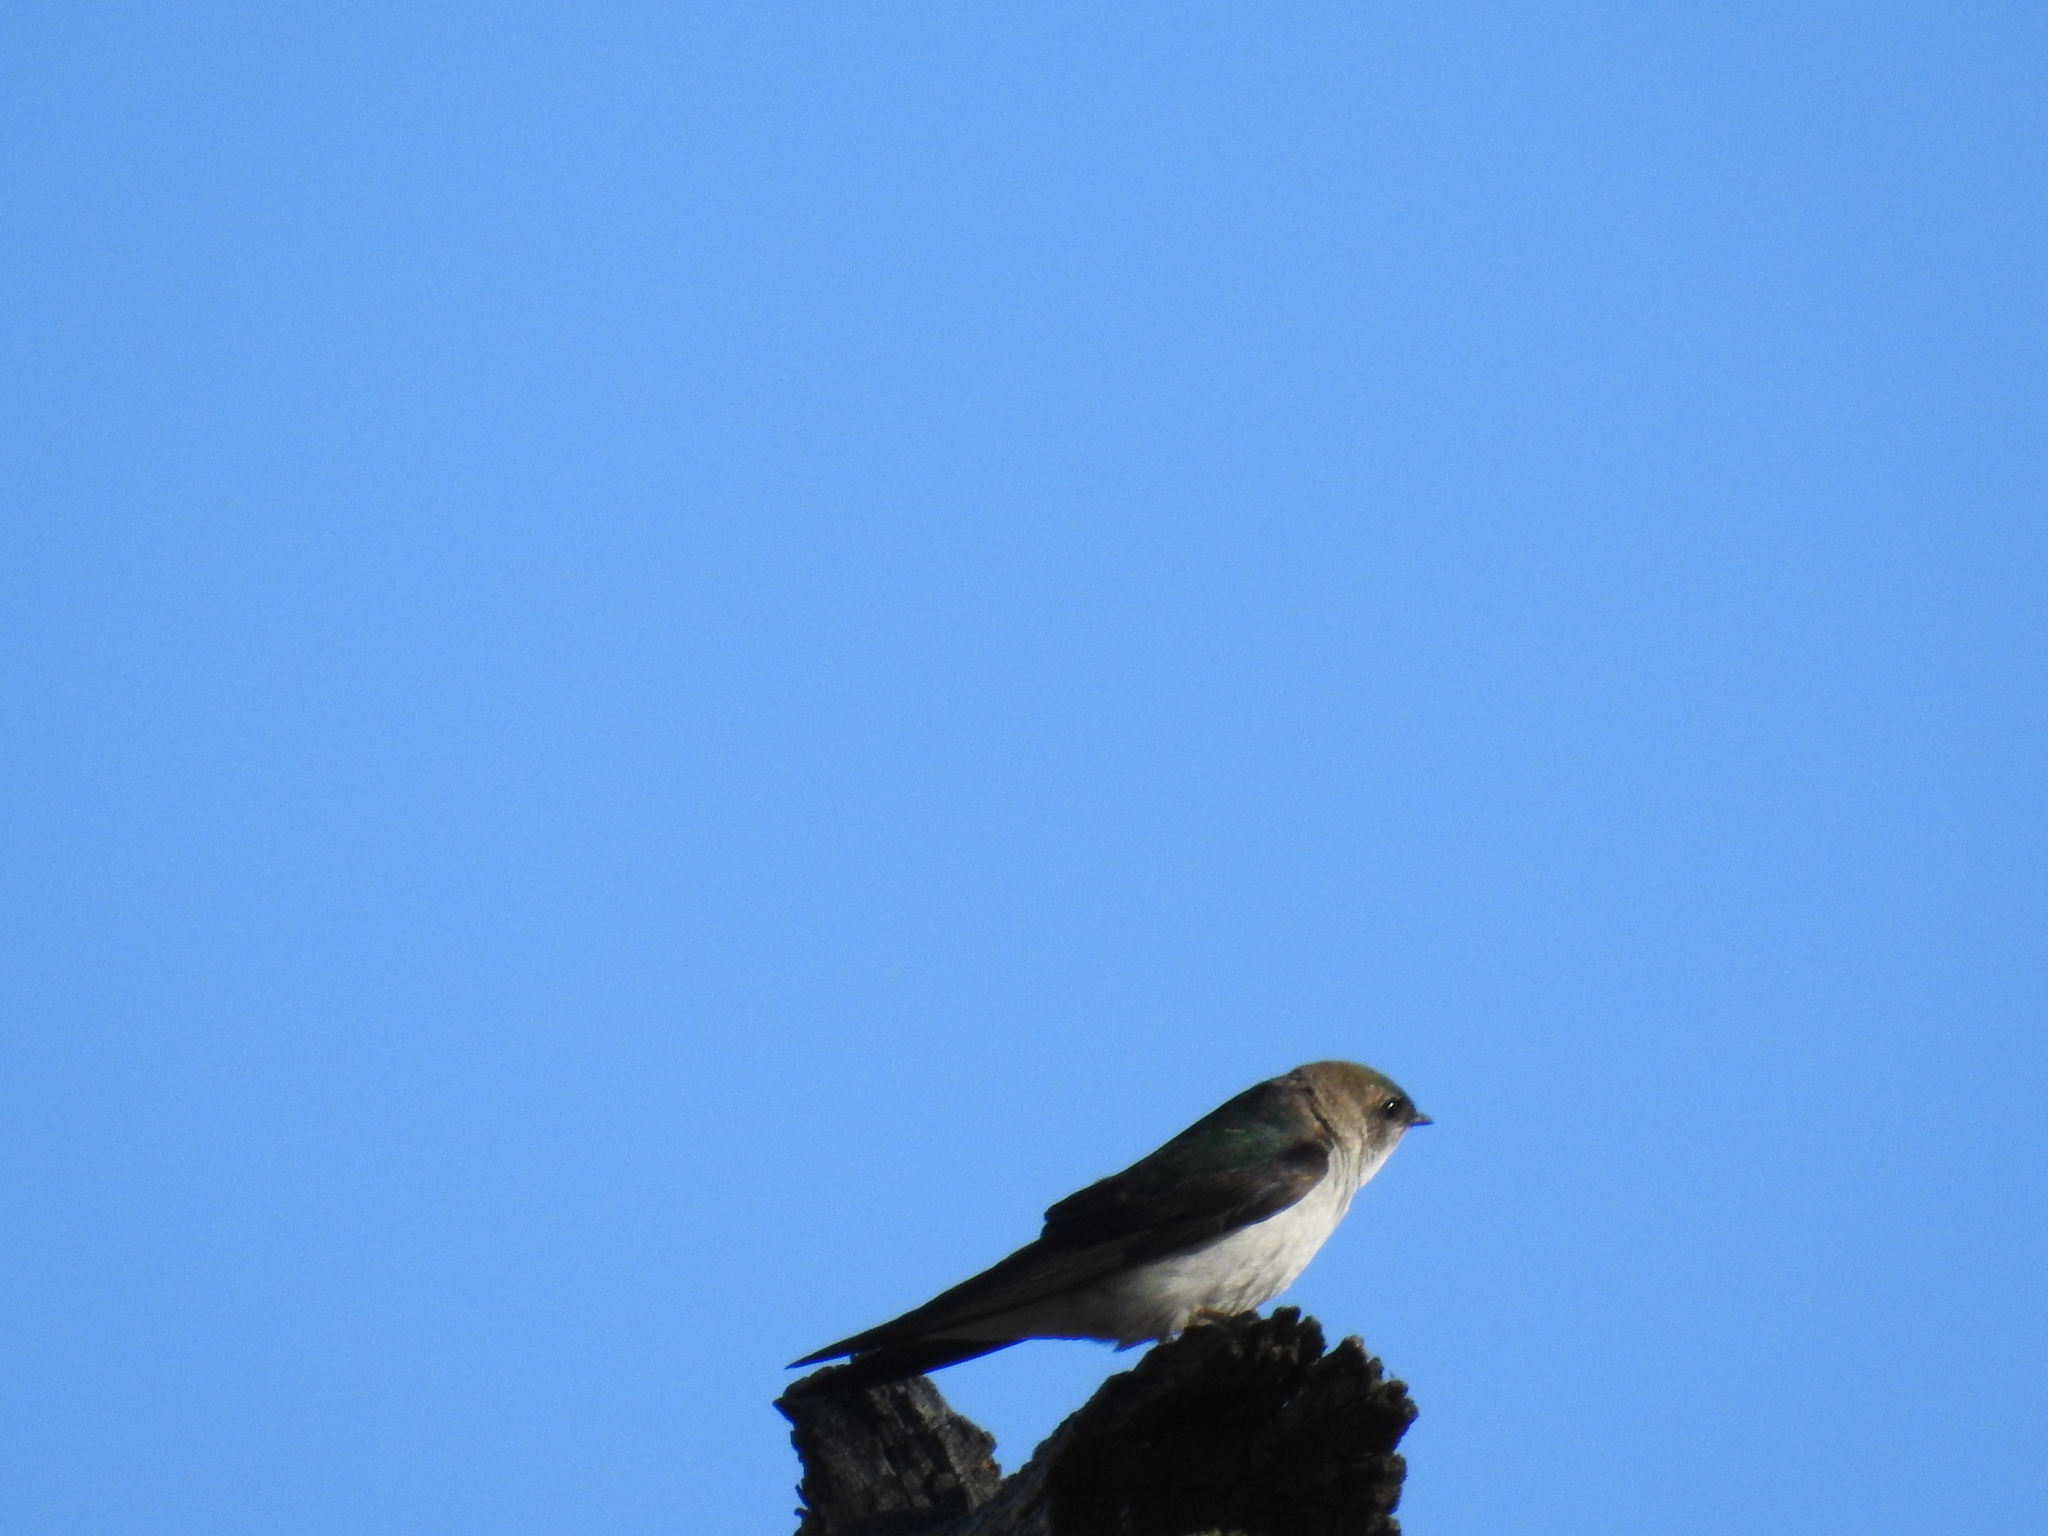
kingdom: Animalia
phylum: Chordata
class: Aves
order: Passeriformes
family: Hirundinidae
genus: Tachycineta
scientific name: Tachycineta thalassina
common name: Violet-green swallow
